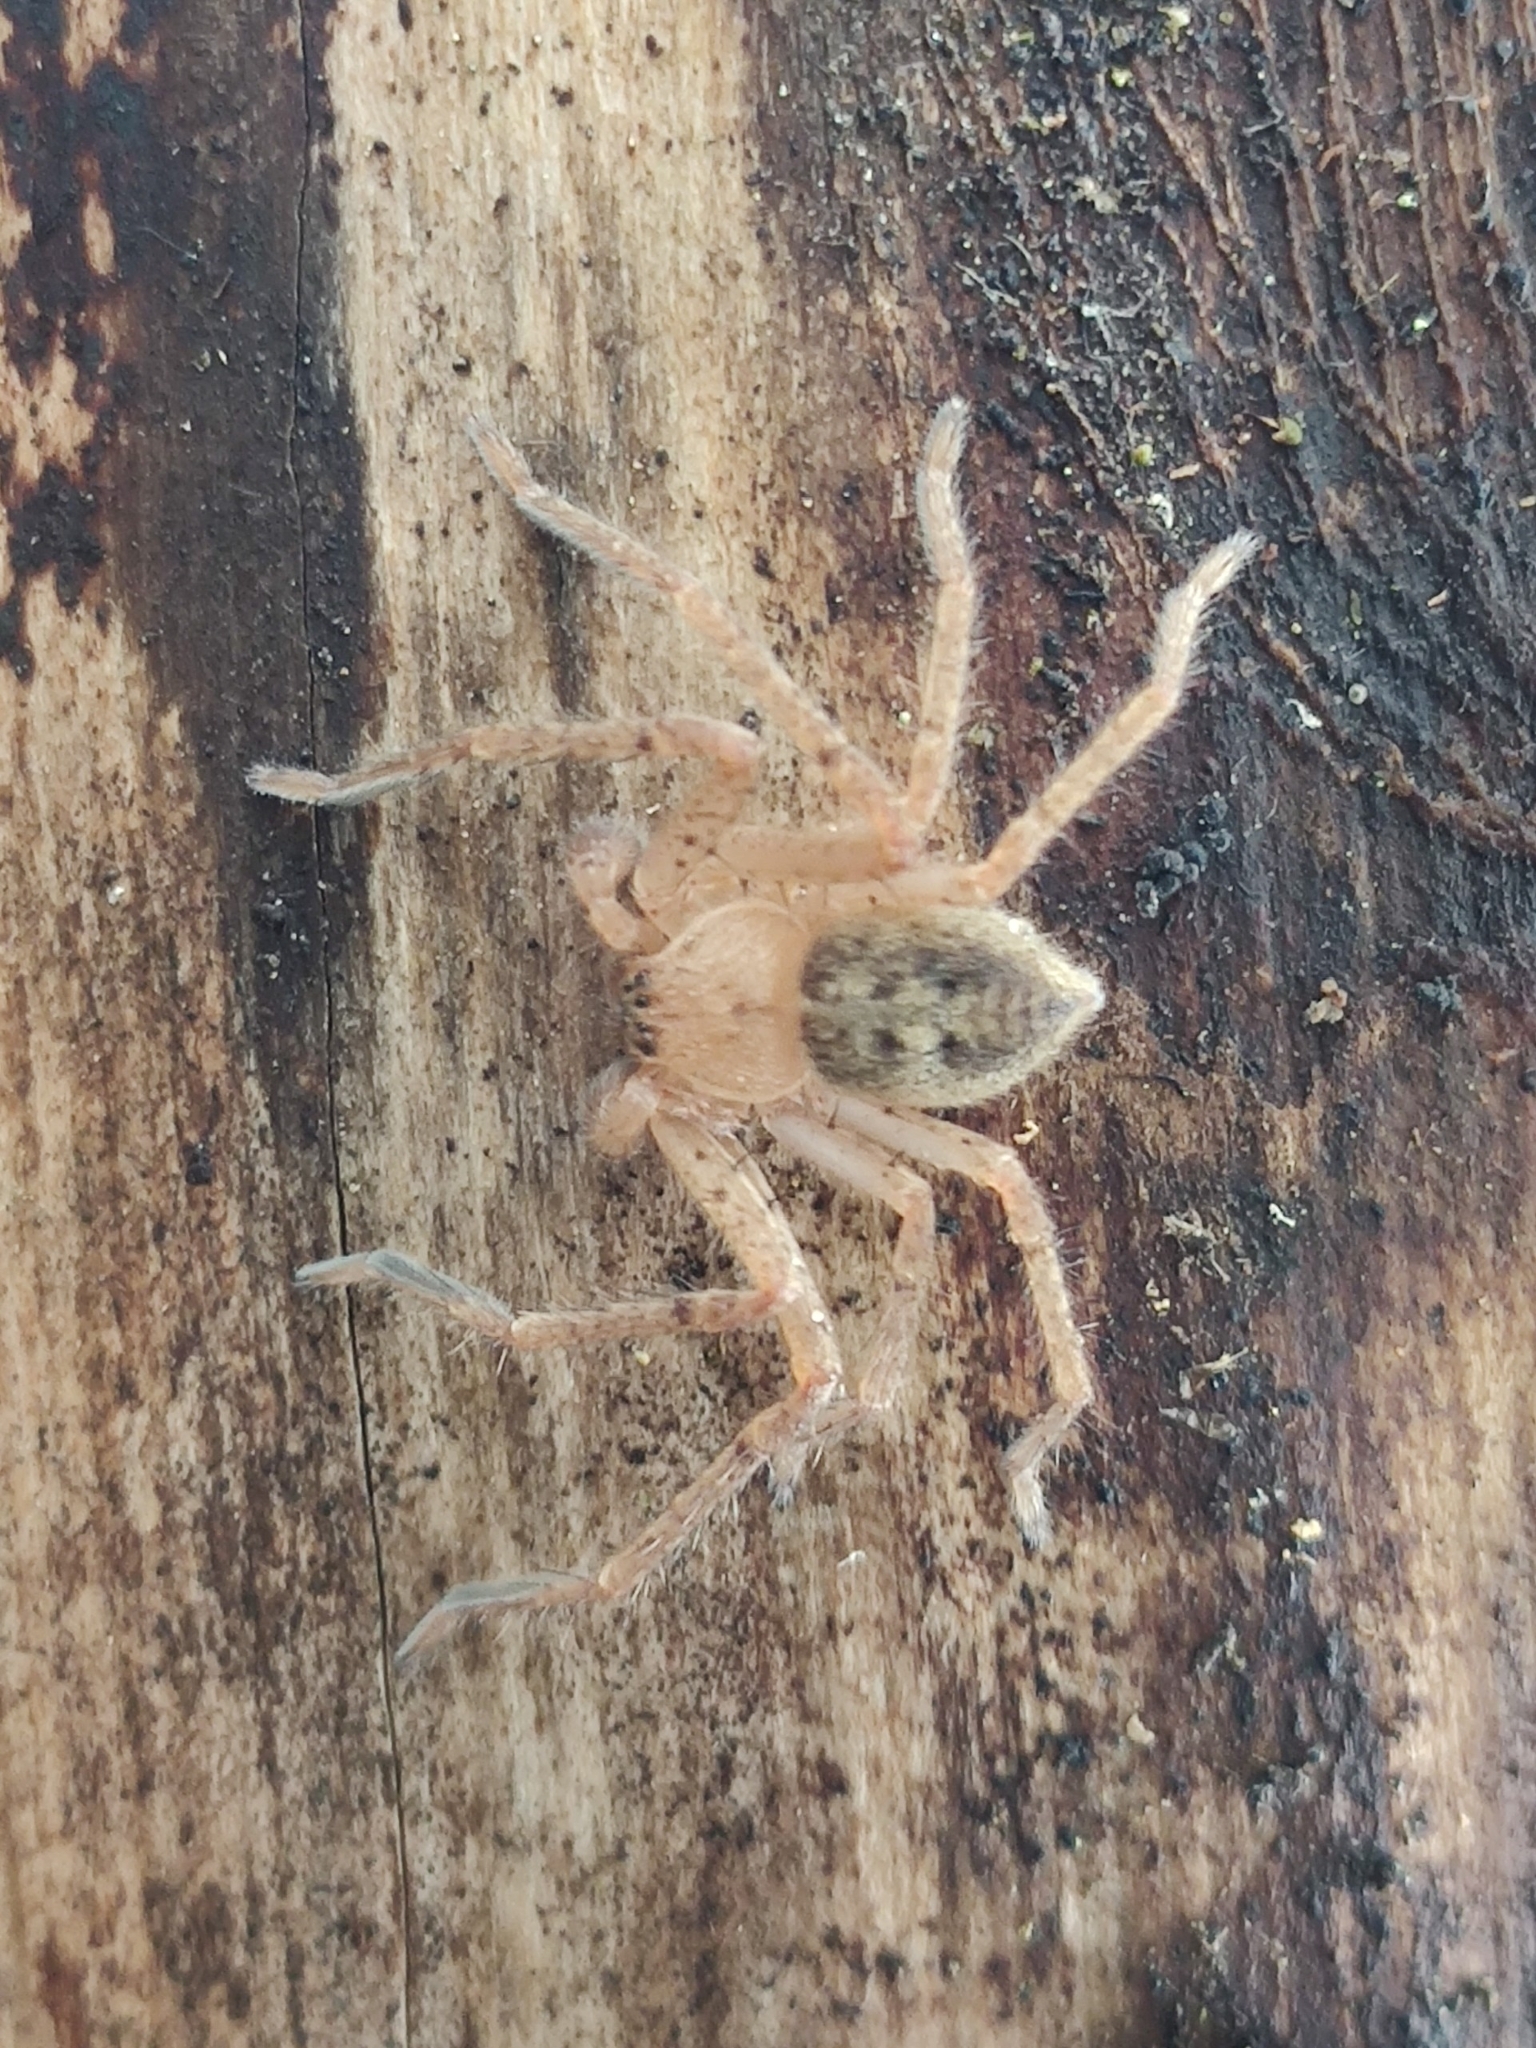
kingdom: Animalia
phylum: Arthropoda
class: Arachnida
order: Araneae
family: Sparassidae
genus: Olios
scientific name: Olios argelasius
